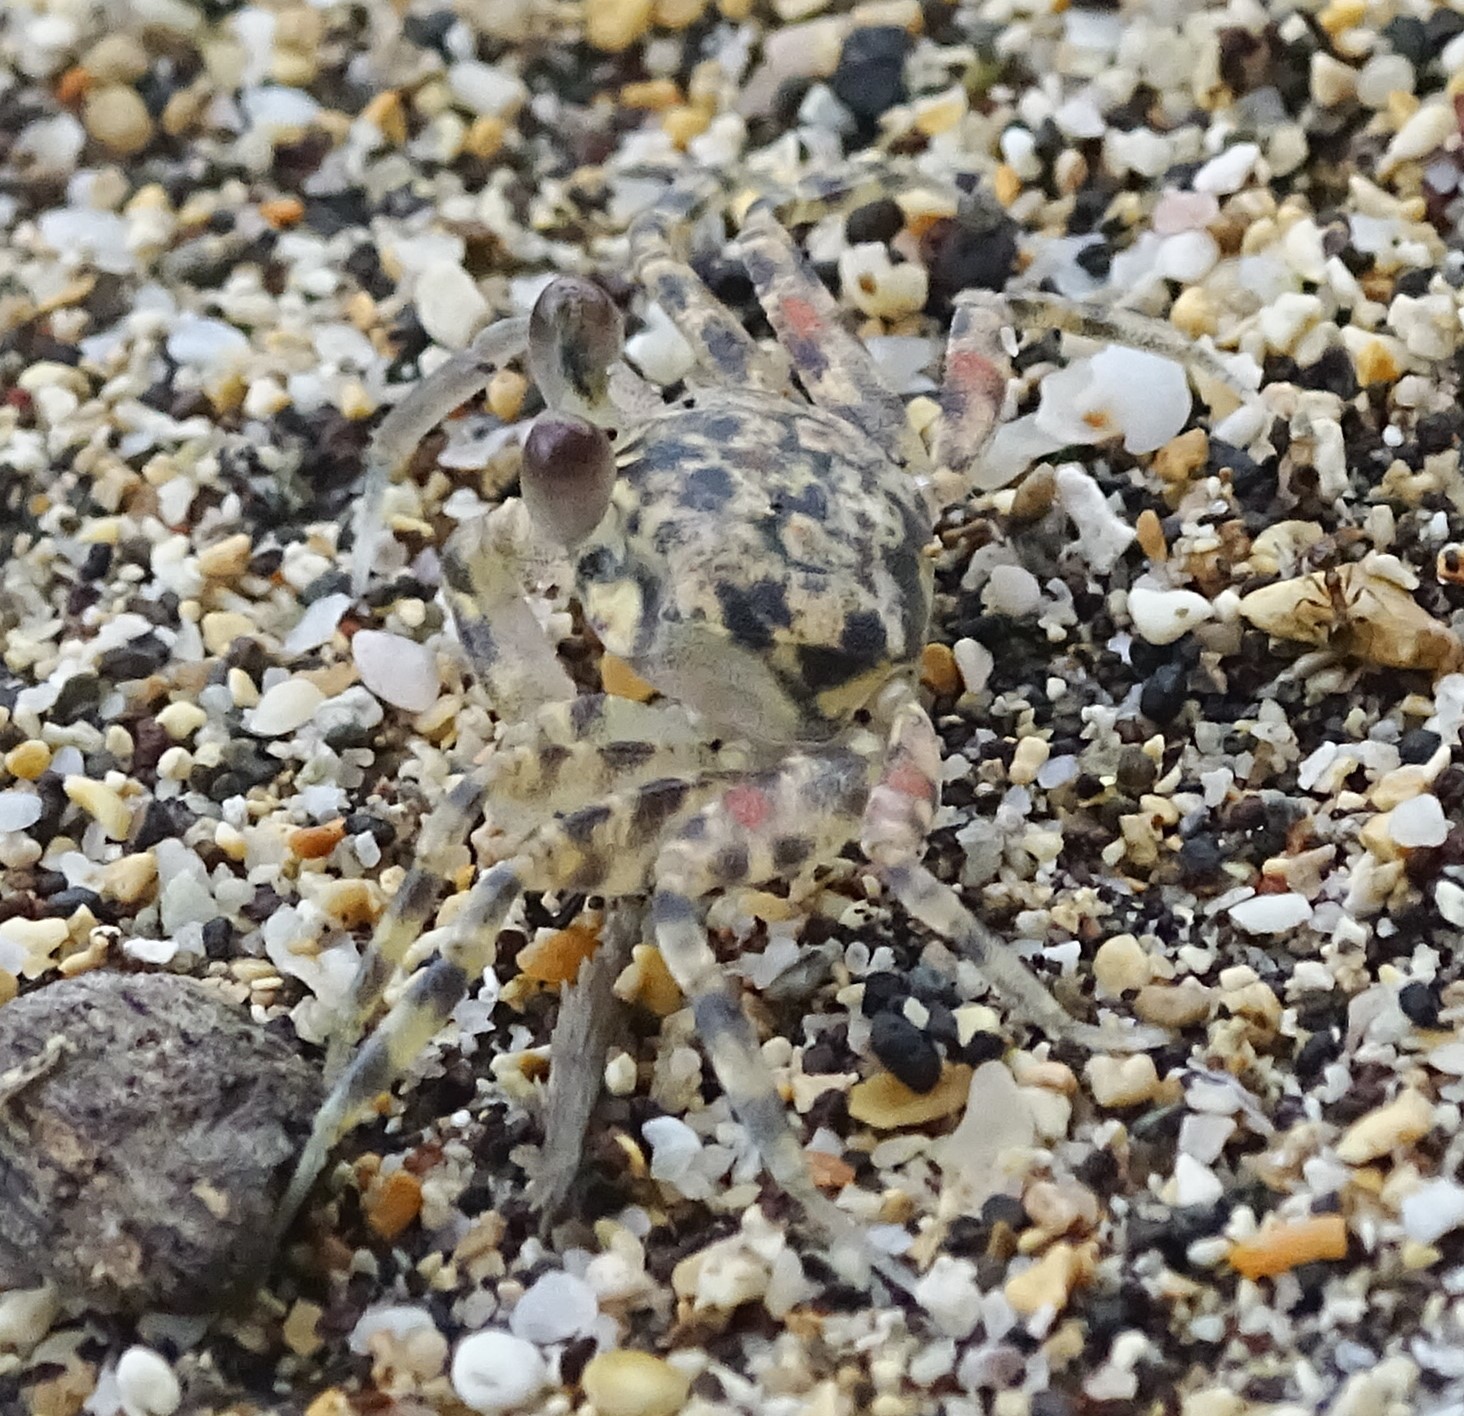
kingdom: Animalia
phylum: Arthropoda
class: Malacostraca
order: Decapoda
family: Ocypodidae
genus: Ocypode
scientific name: Ocypode pallidula
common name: Pallid ghost crab
